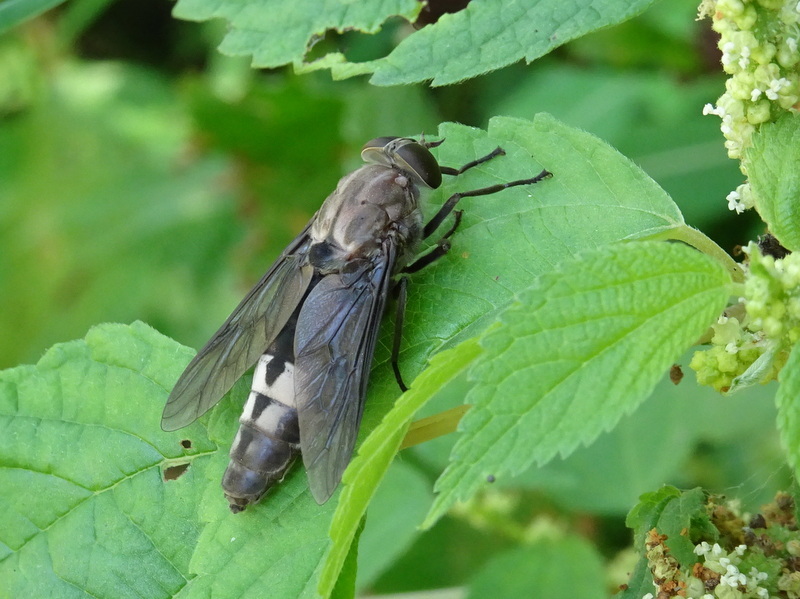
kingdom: Animalia
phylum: Arthropoda
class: Insecta
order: Diptera
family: Tabanidae
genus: Merycomyia
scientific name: Merycomyia whitneyi
